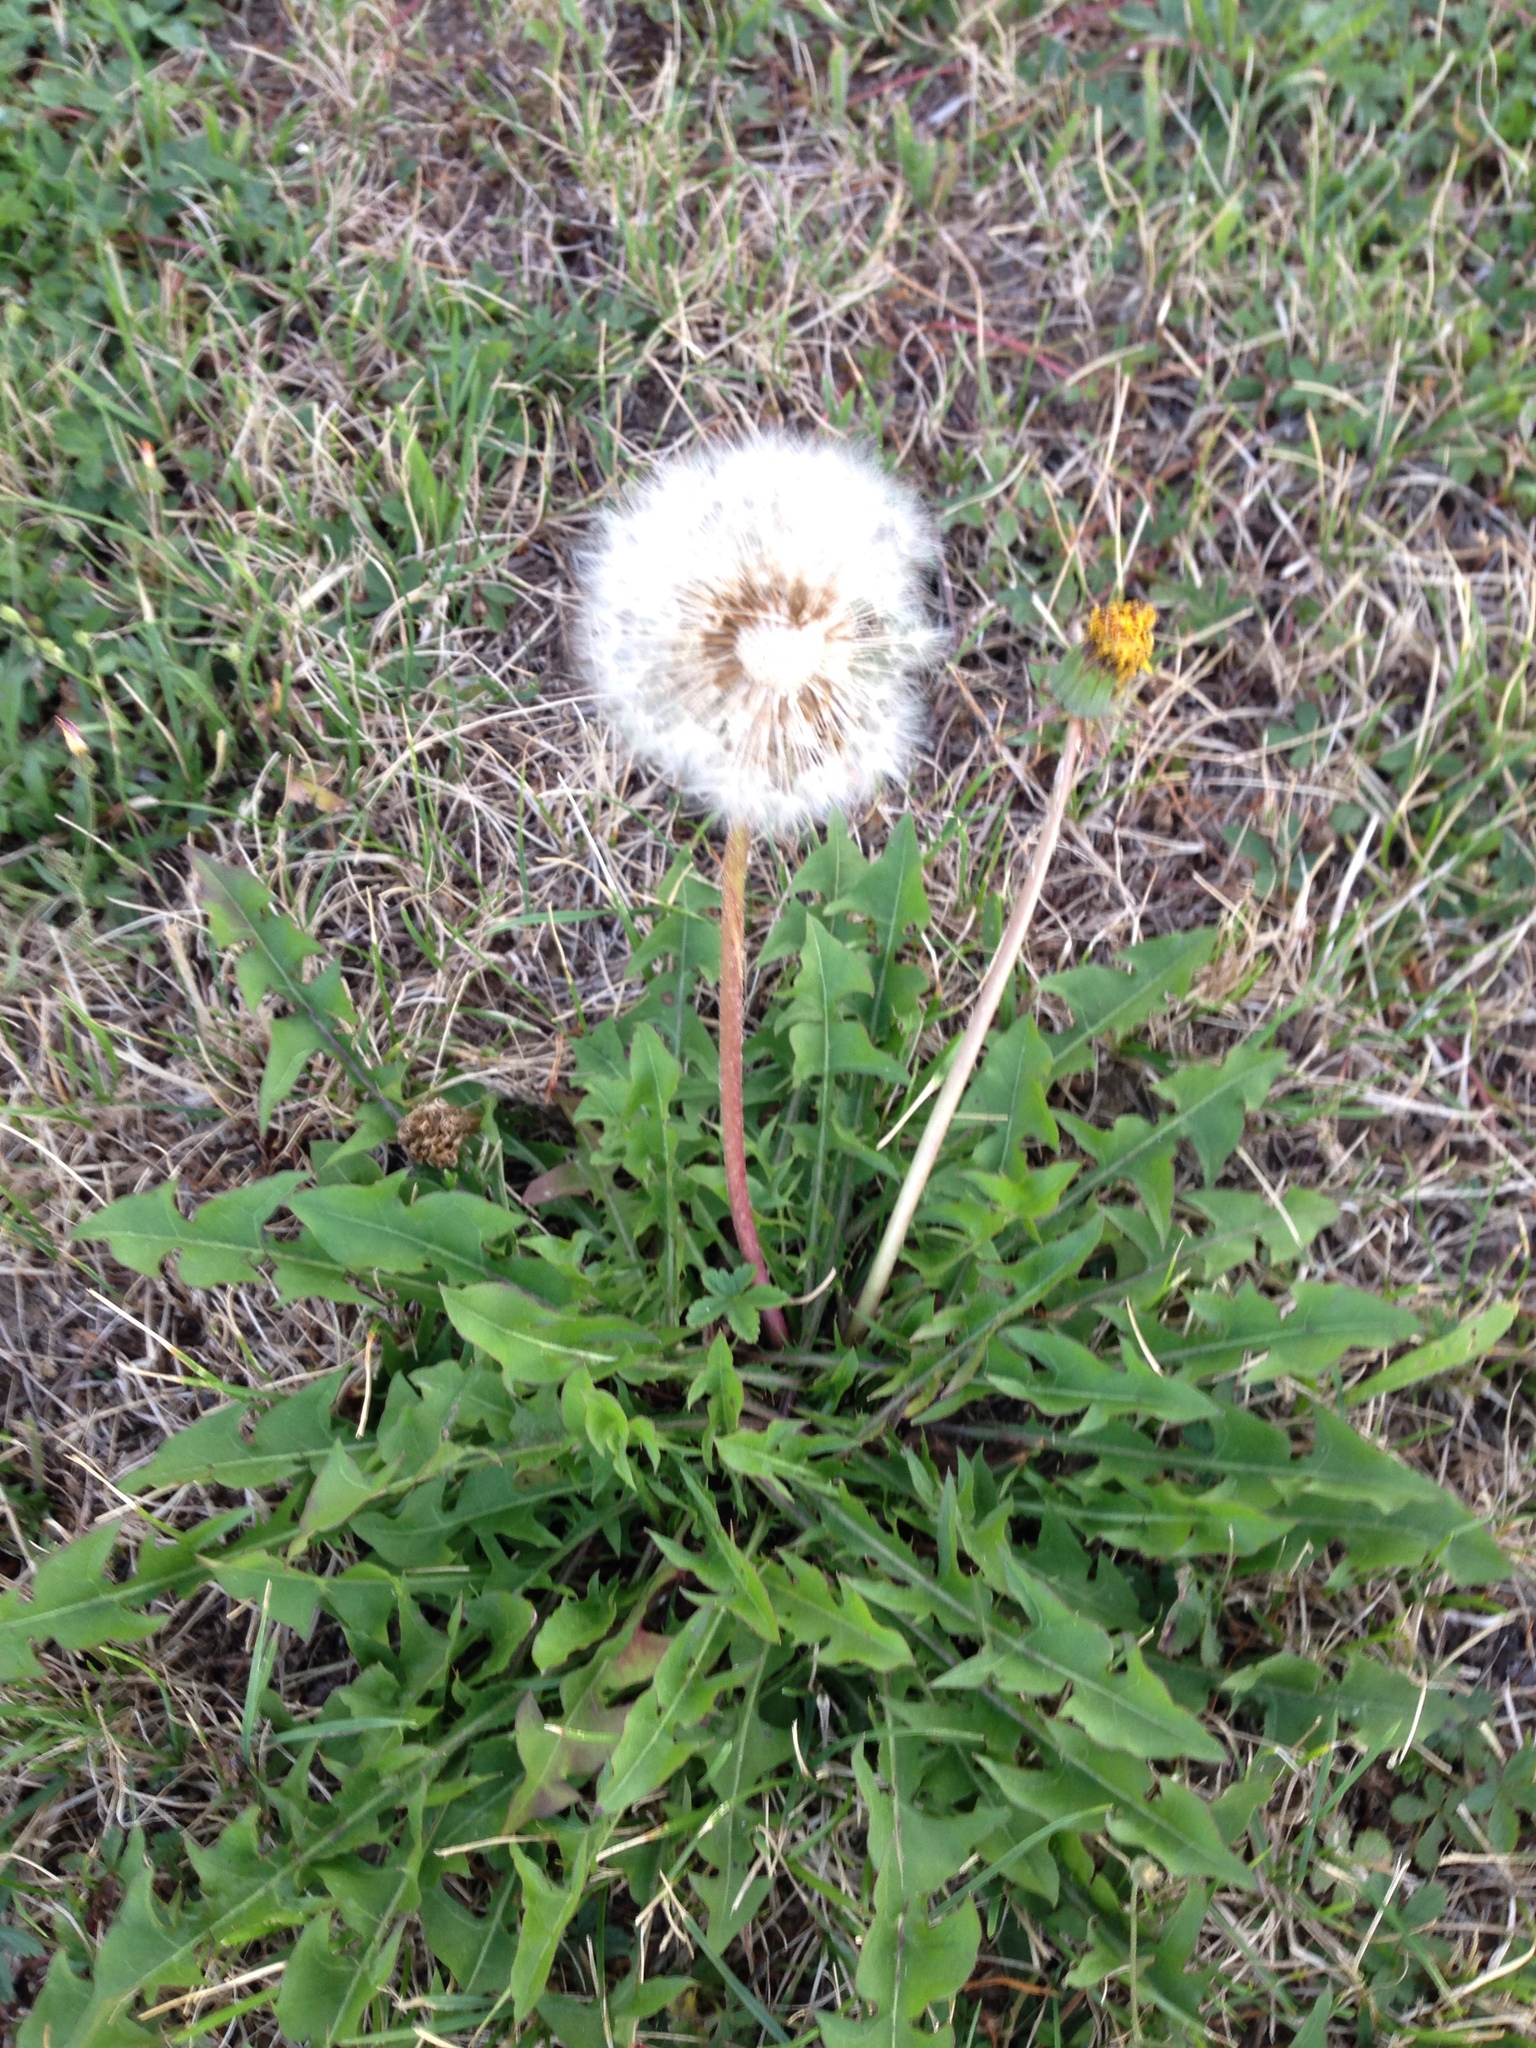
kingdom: Plantae
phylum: Tracheophyta
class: Magnoliopsida
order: Asterales
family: Asteraceae
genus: Taraxacum
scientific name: Taraxacum officinale
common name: Common dandelion
